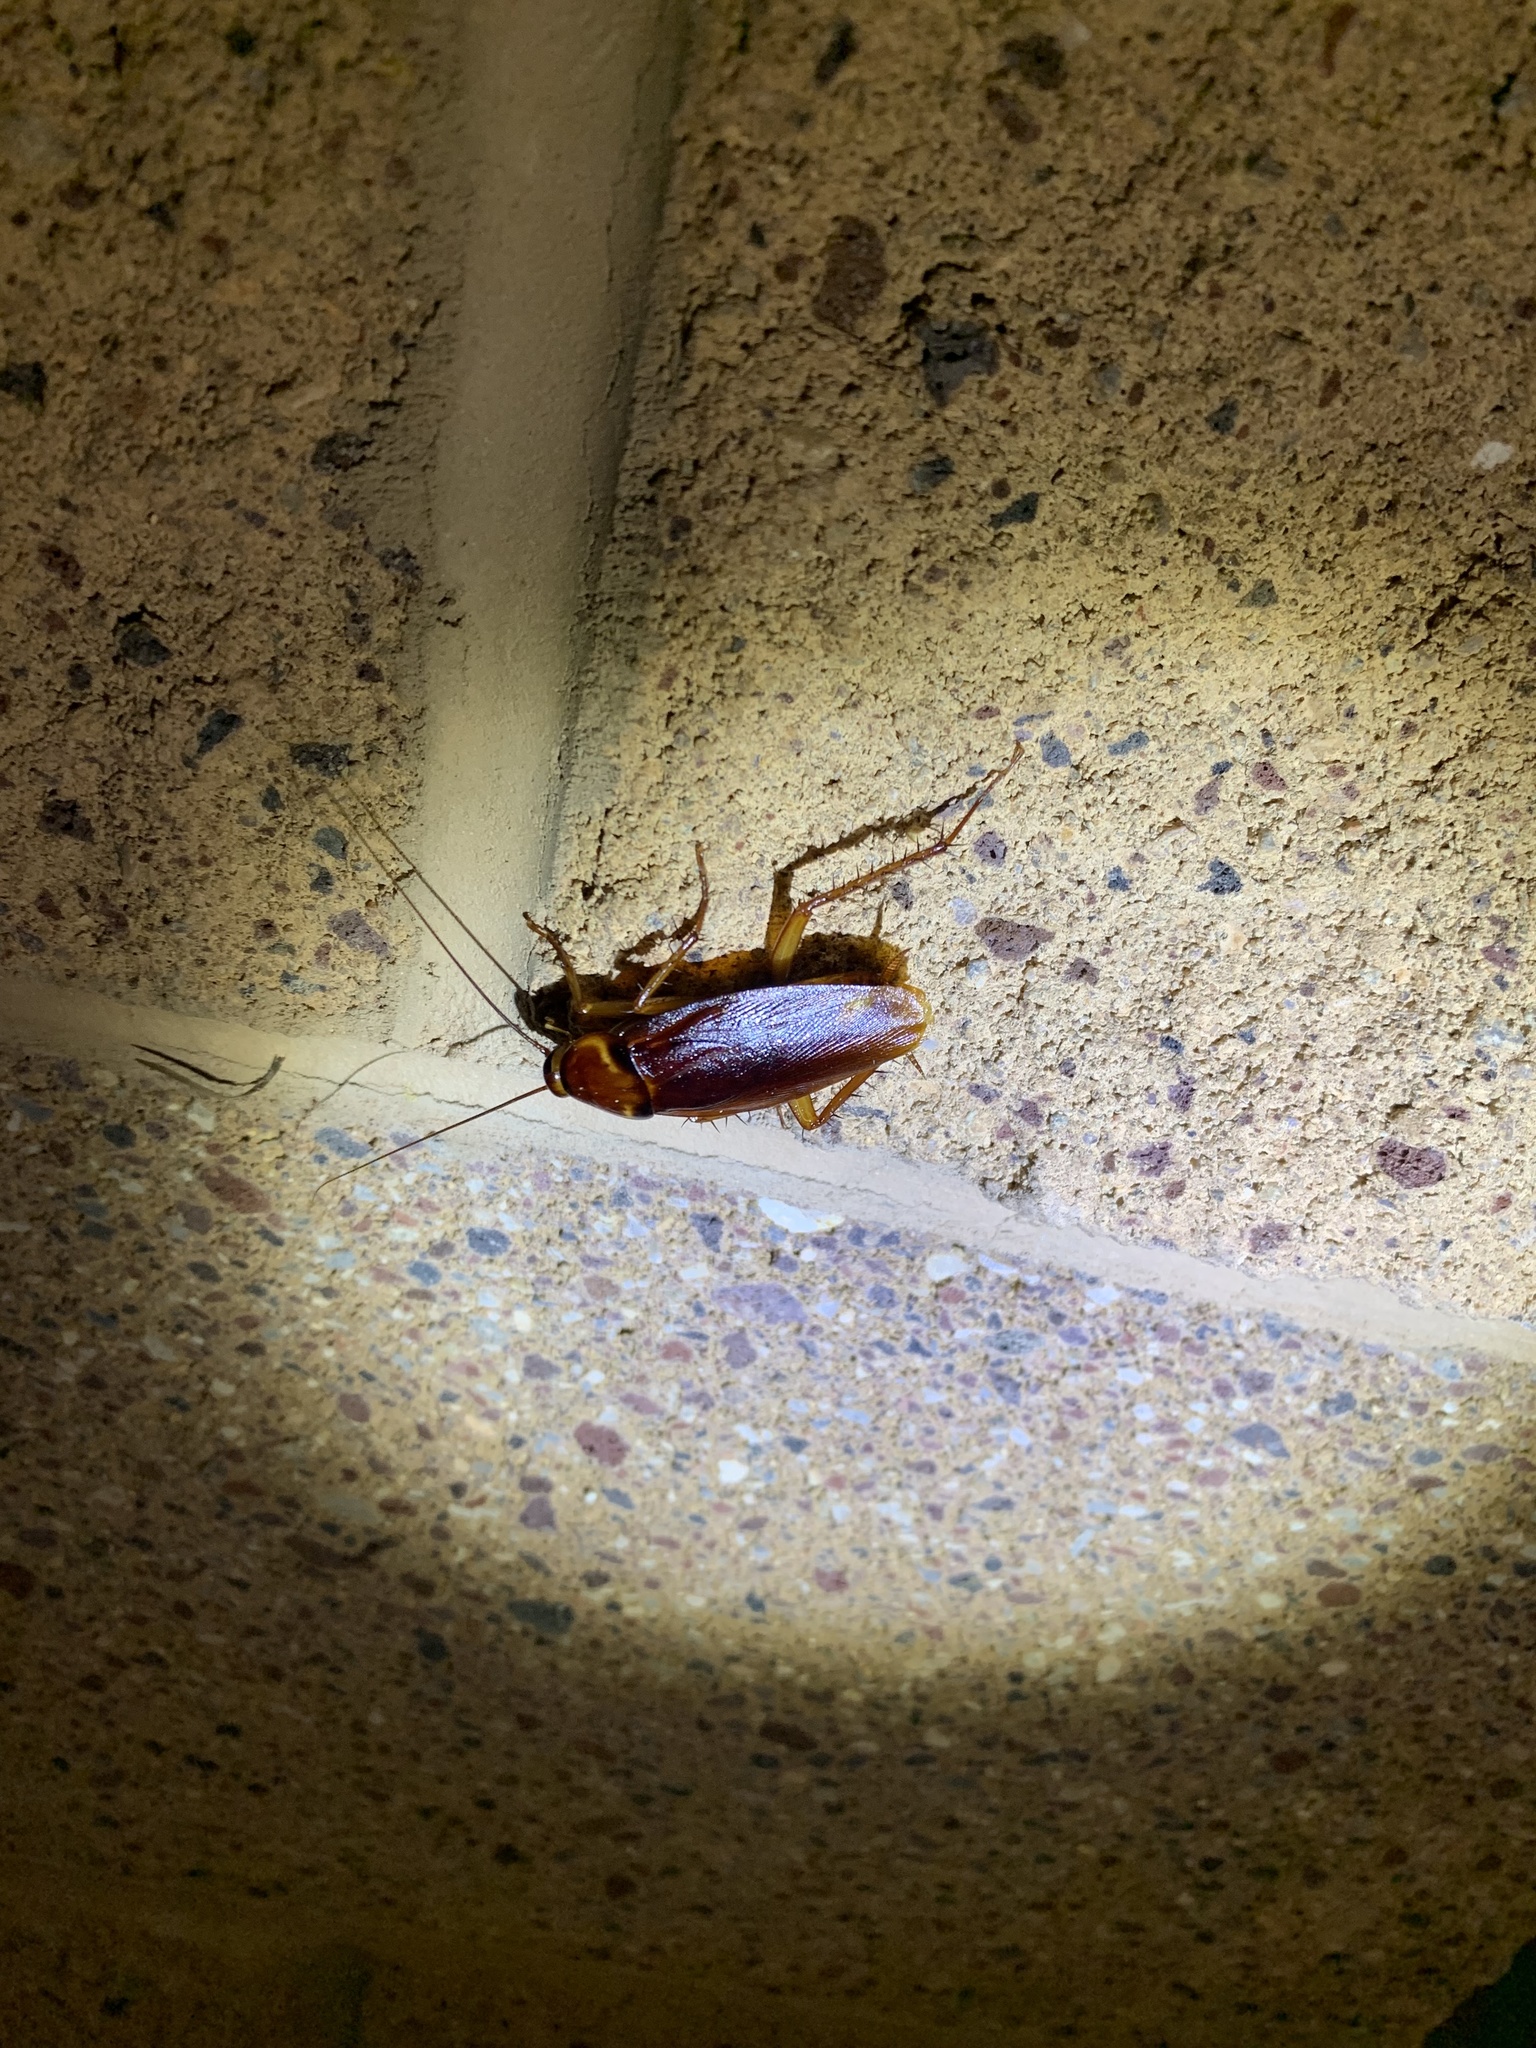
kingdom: Animalia
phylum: Arthropoda
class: Insecta
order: Blattodea
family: Blattidae
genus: Periplaneta
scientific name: Periplaneta americana
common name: American cockroach
